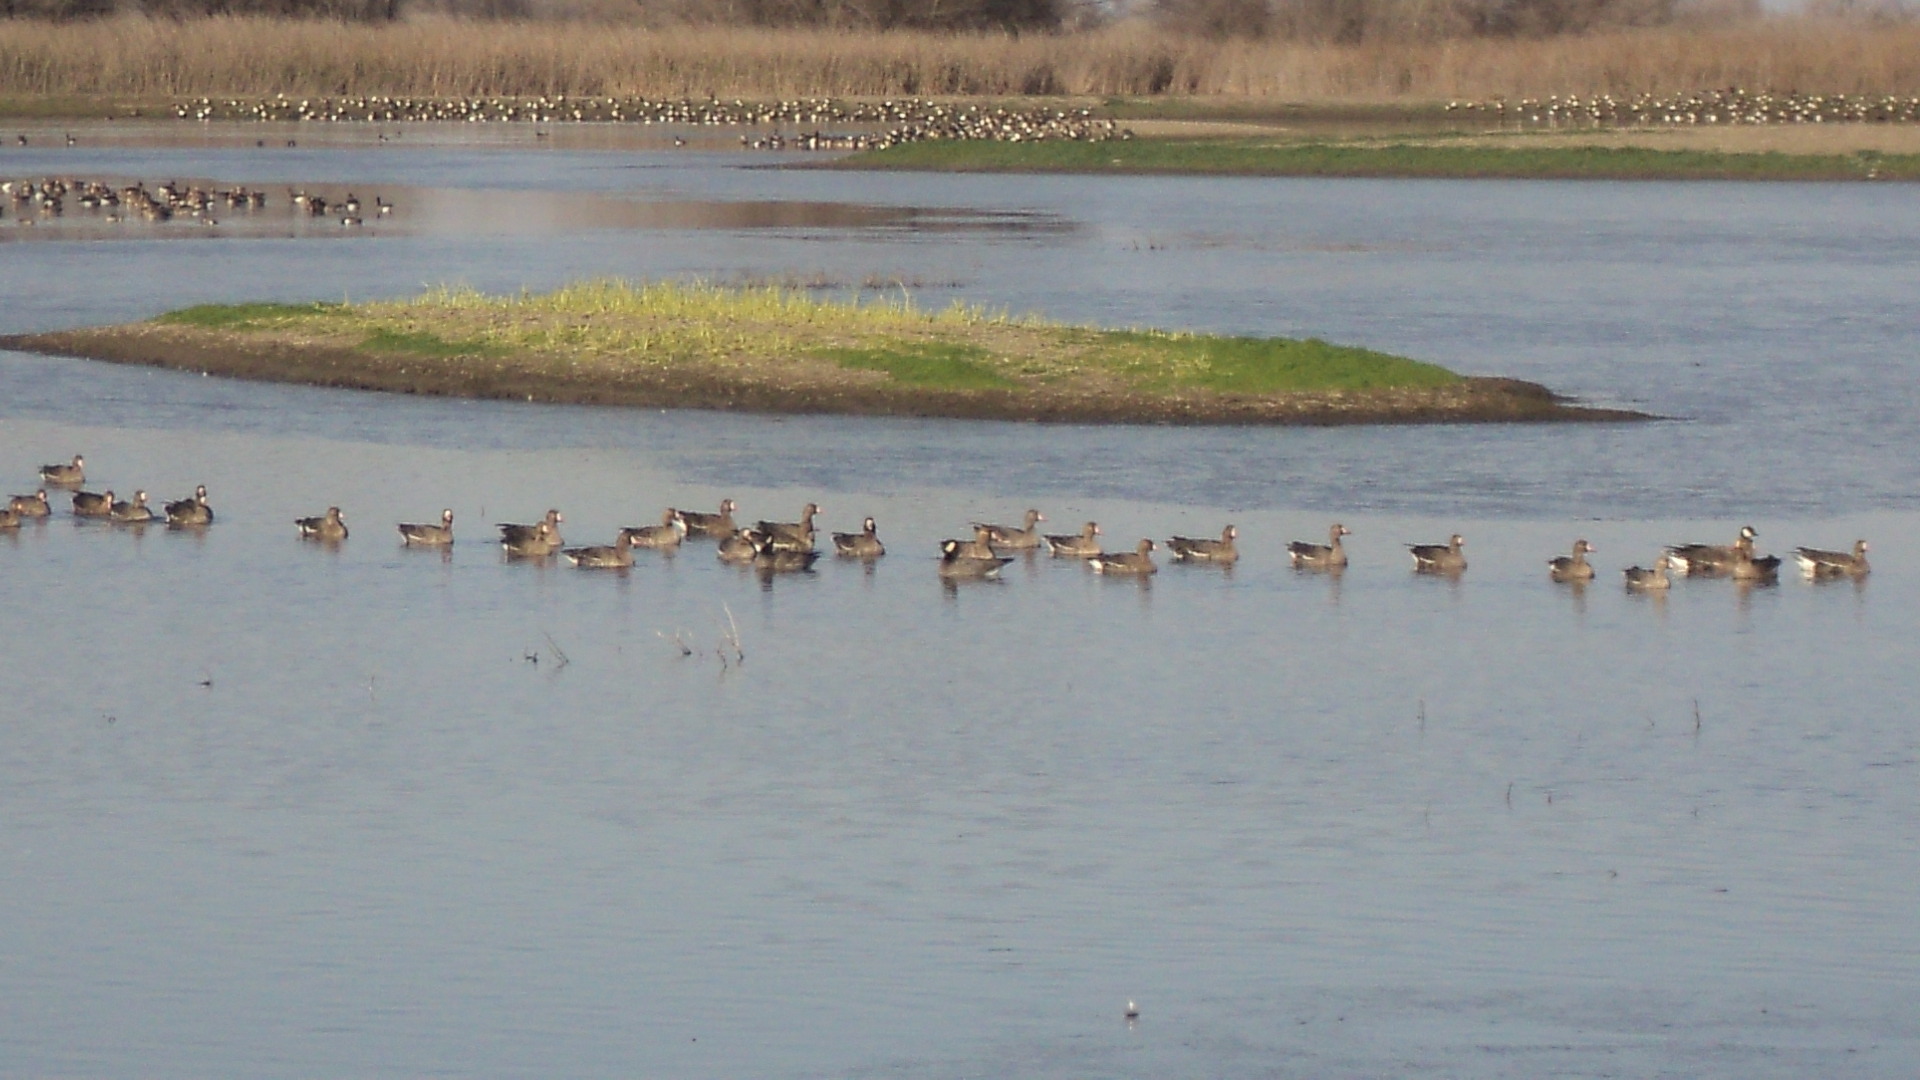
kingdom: Animalia
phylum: Chordata
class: Aves
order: Anseriformes
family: Anatidae
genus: Anser
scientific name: Anser albifrons
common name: Greater white-fronted goose
